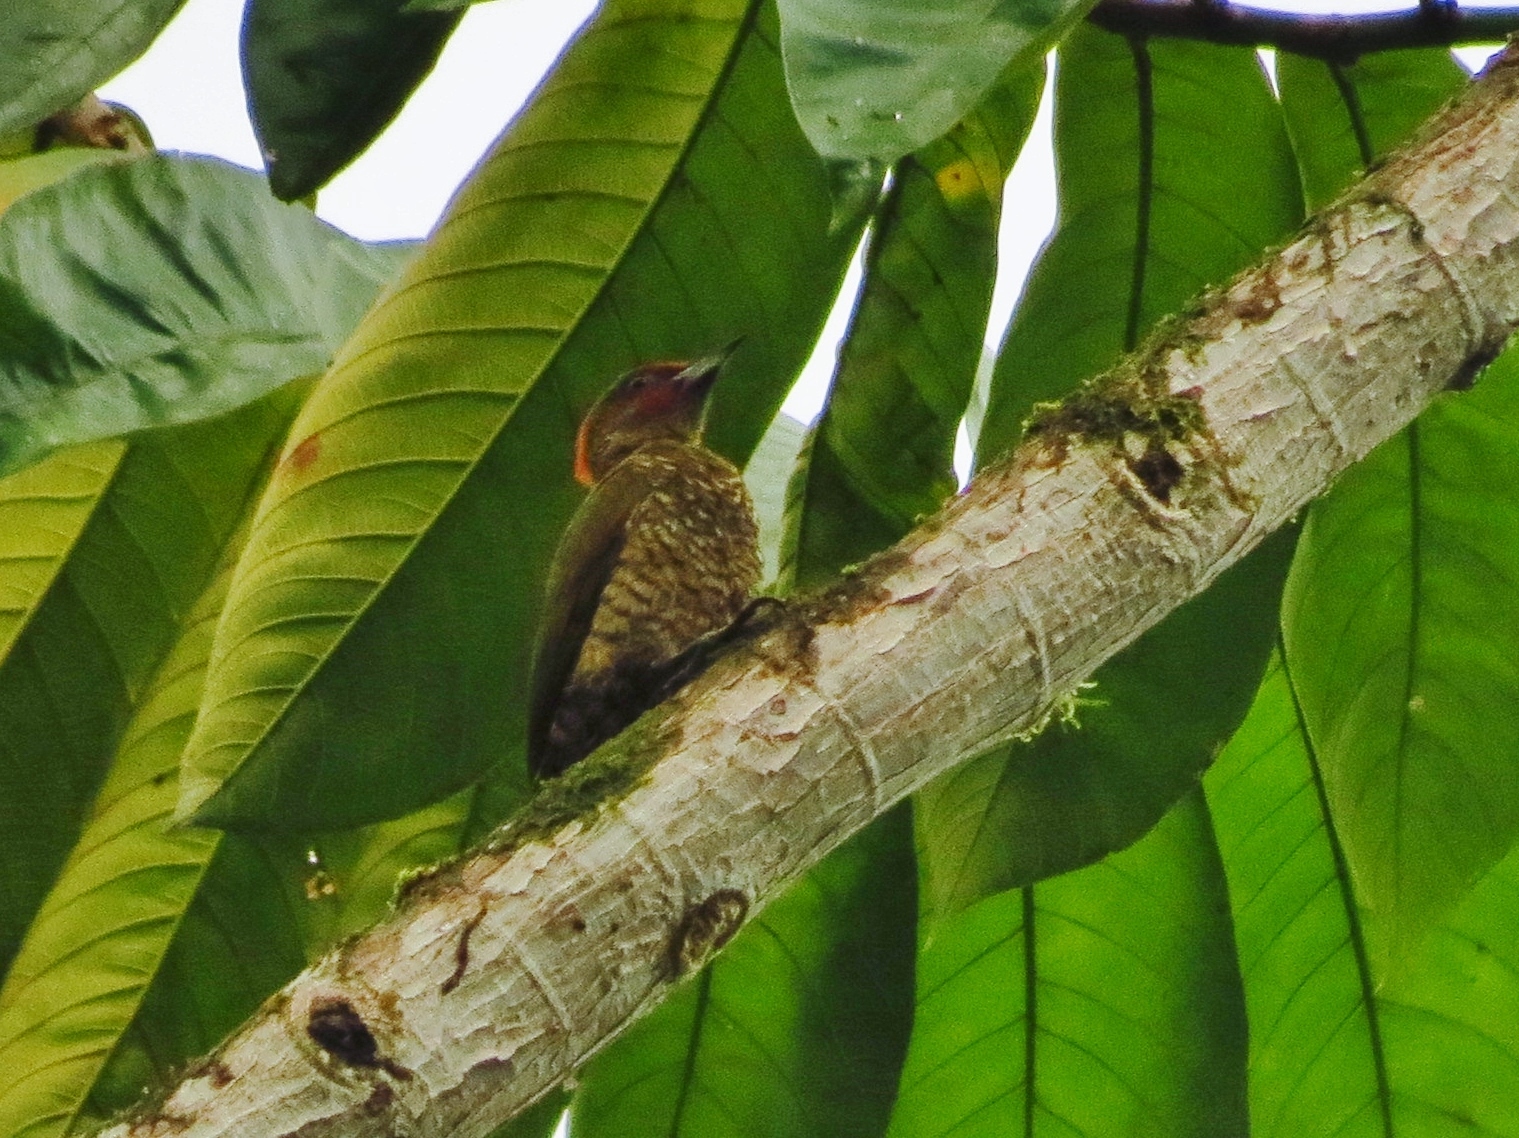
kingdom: Animalia
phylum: Chordata
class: Aves
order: Piciformes
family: Picidae
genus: Piculus
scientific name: Piculus simplex
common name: Rufous-winged woodpecker
